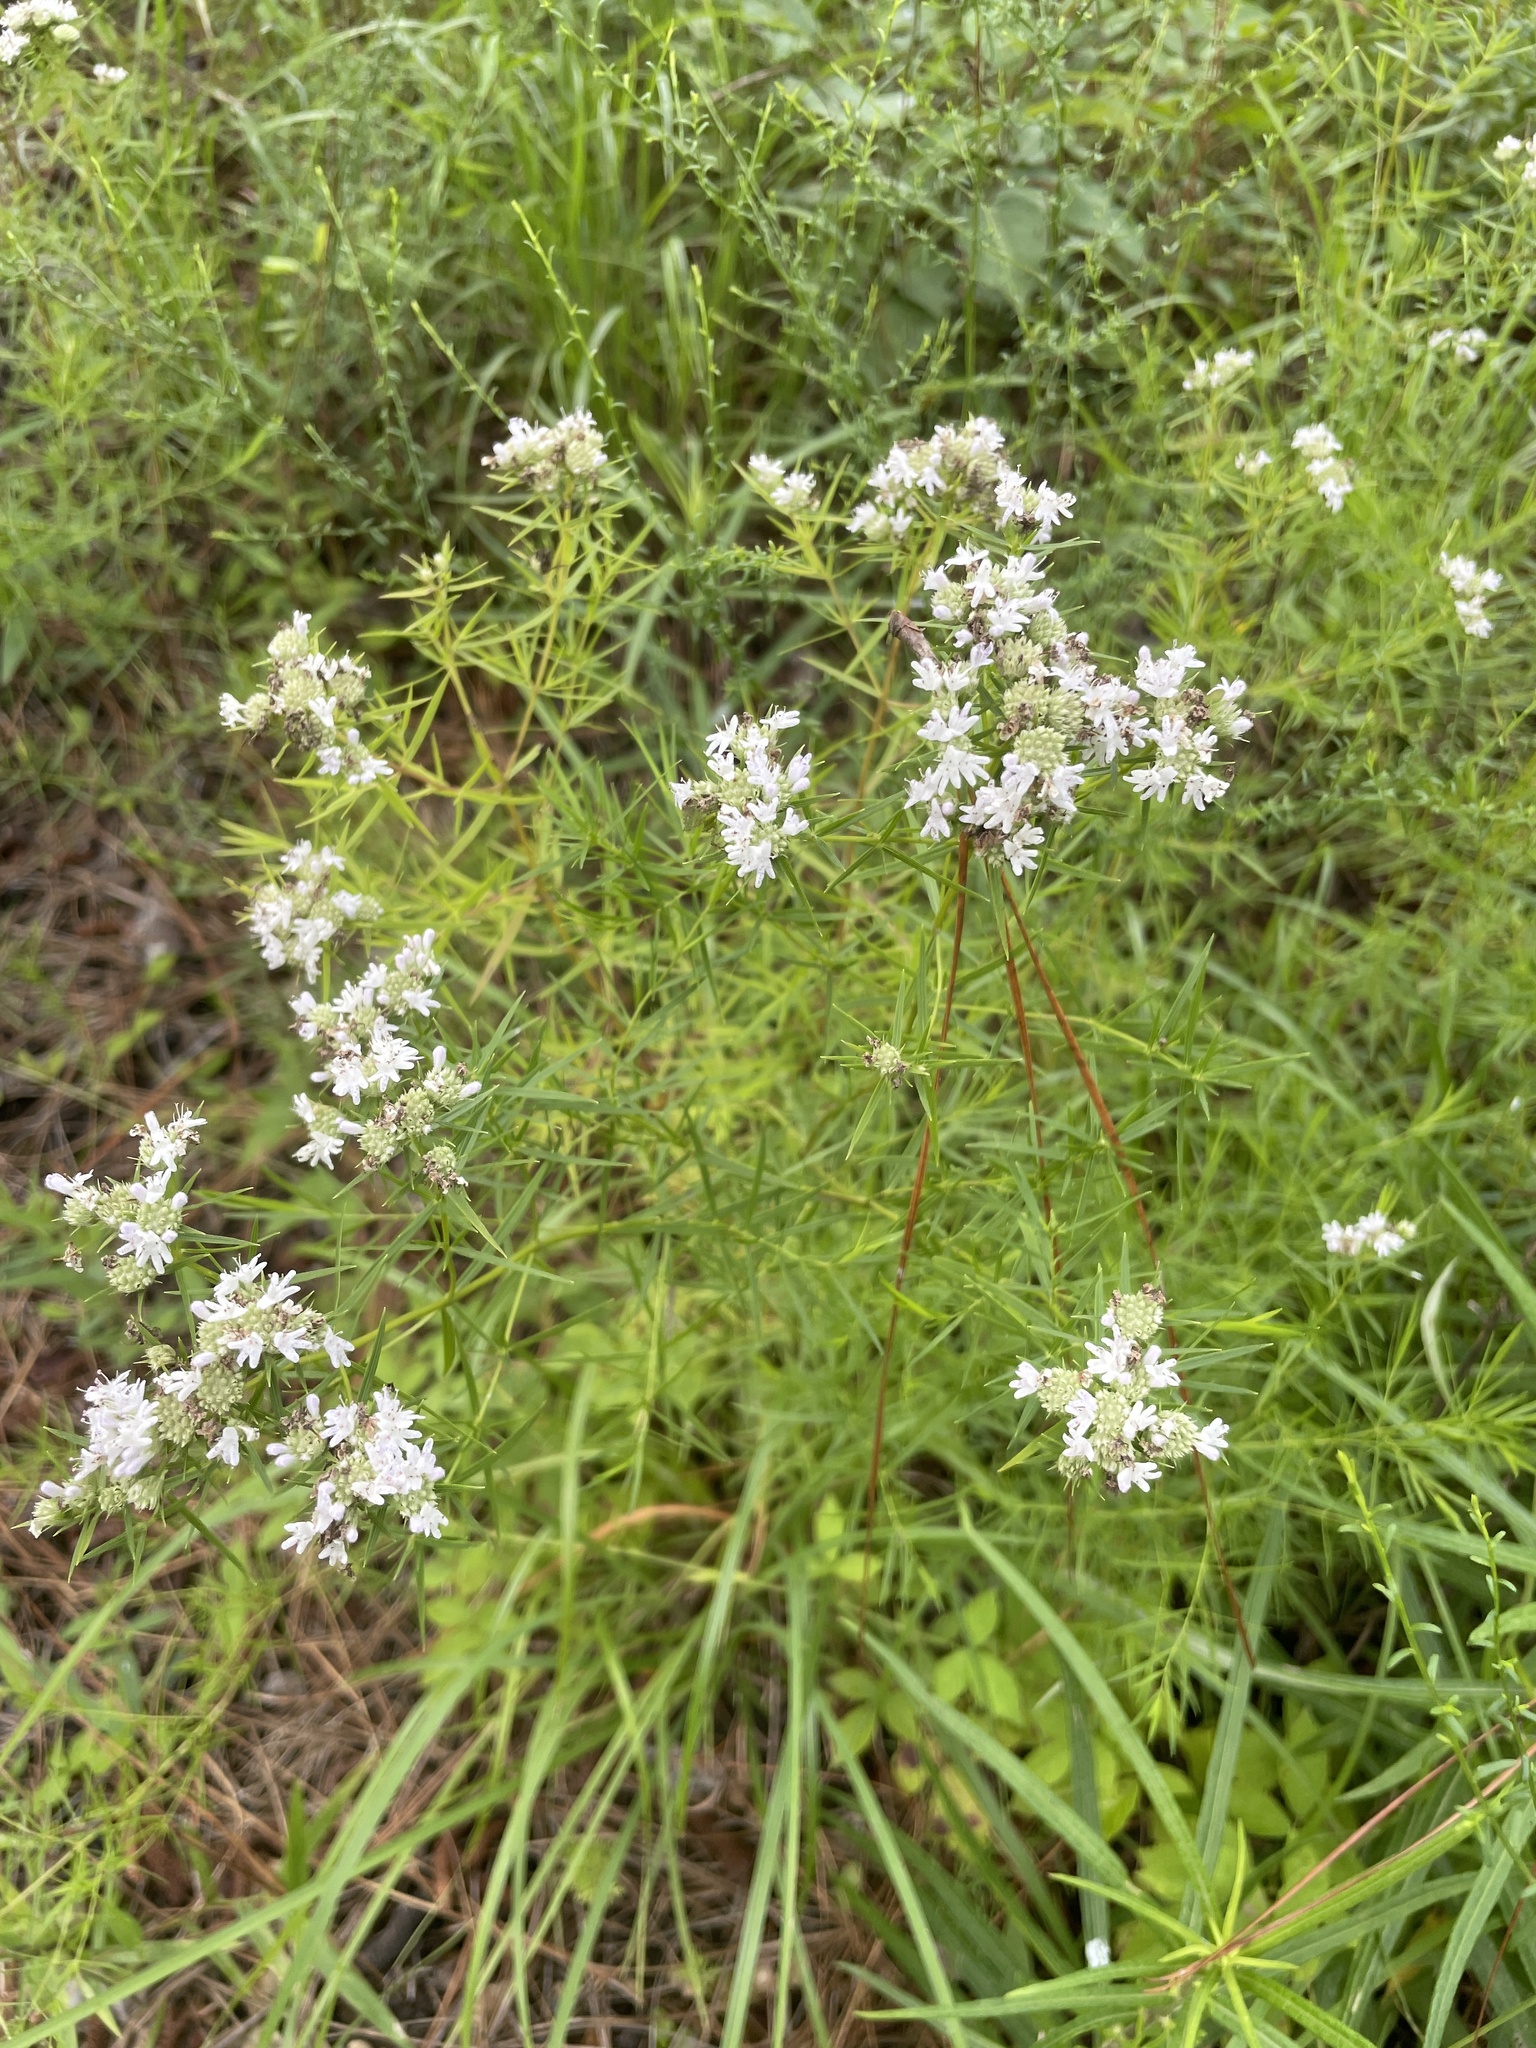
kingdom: Plantae
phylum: Tracheophyta
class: Magnoliopsida
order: Lamiales
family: Lamiaceae
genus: Pycnanthemum
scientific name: Pycnanthemum tenuifolium
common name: Narrow-leaf mountain-mint
